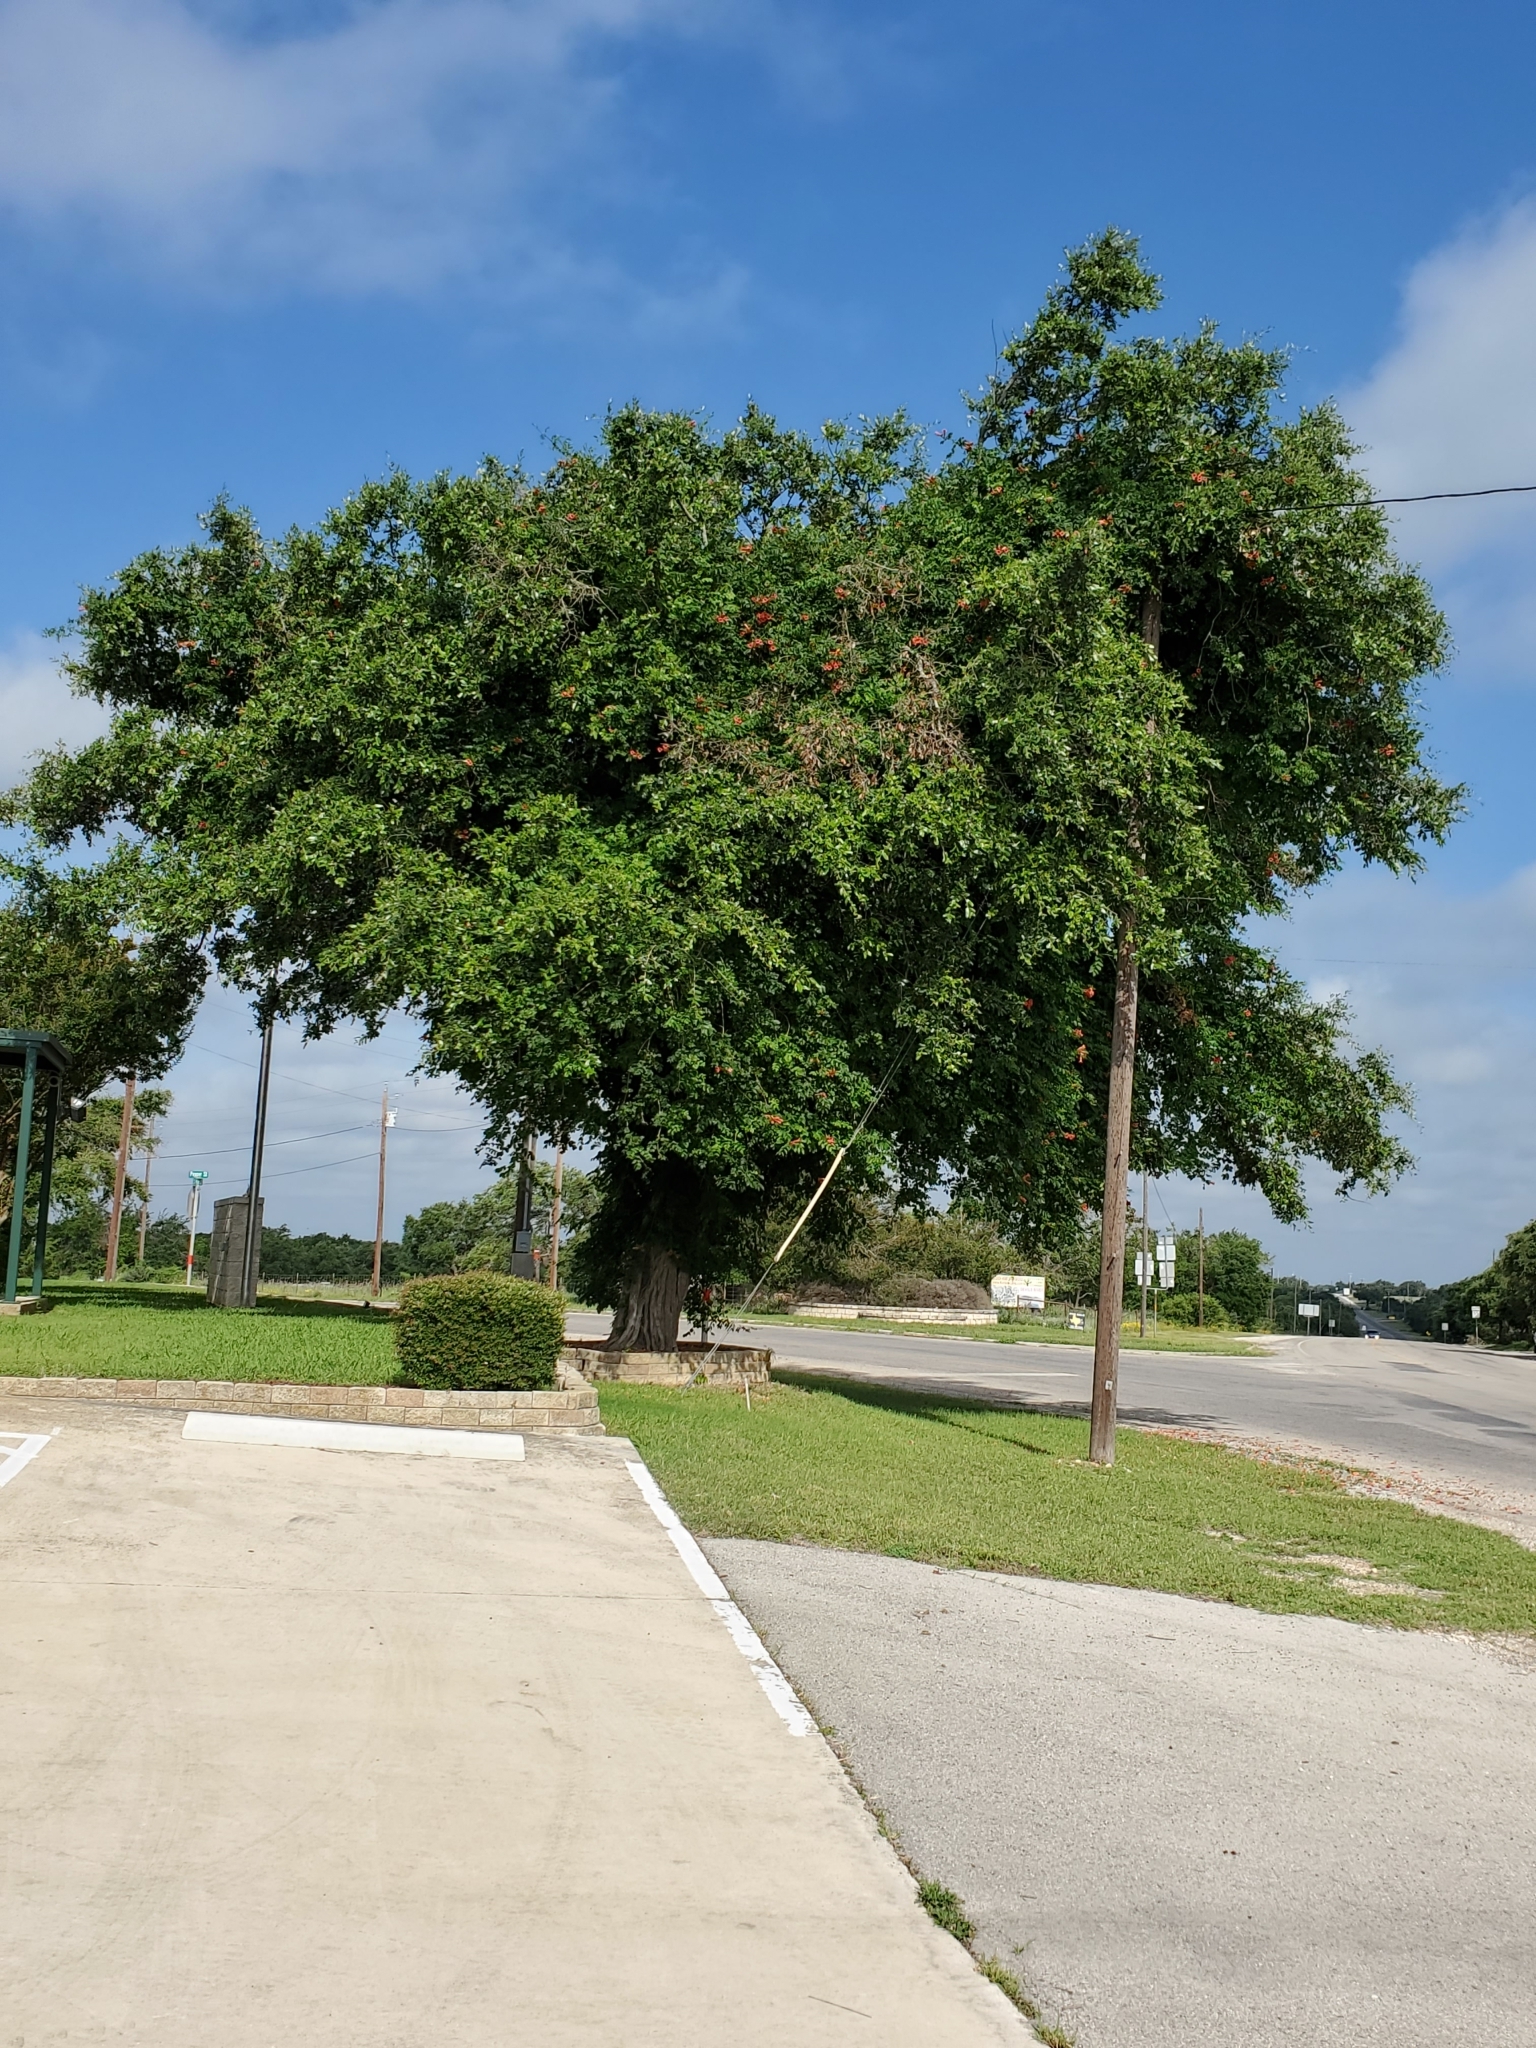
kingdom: Plantae
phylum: Tracheophyta
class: Magnoliopsida
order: Lamiales
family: Bignoniaceae
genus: Campsis
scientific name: Campsis radicans
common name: Trumpet-creeper
